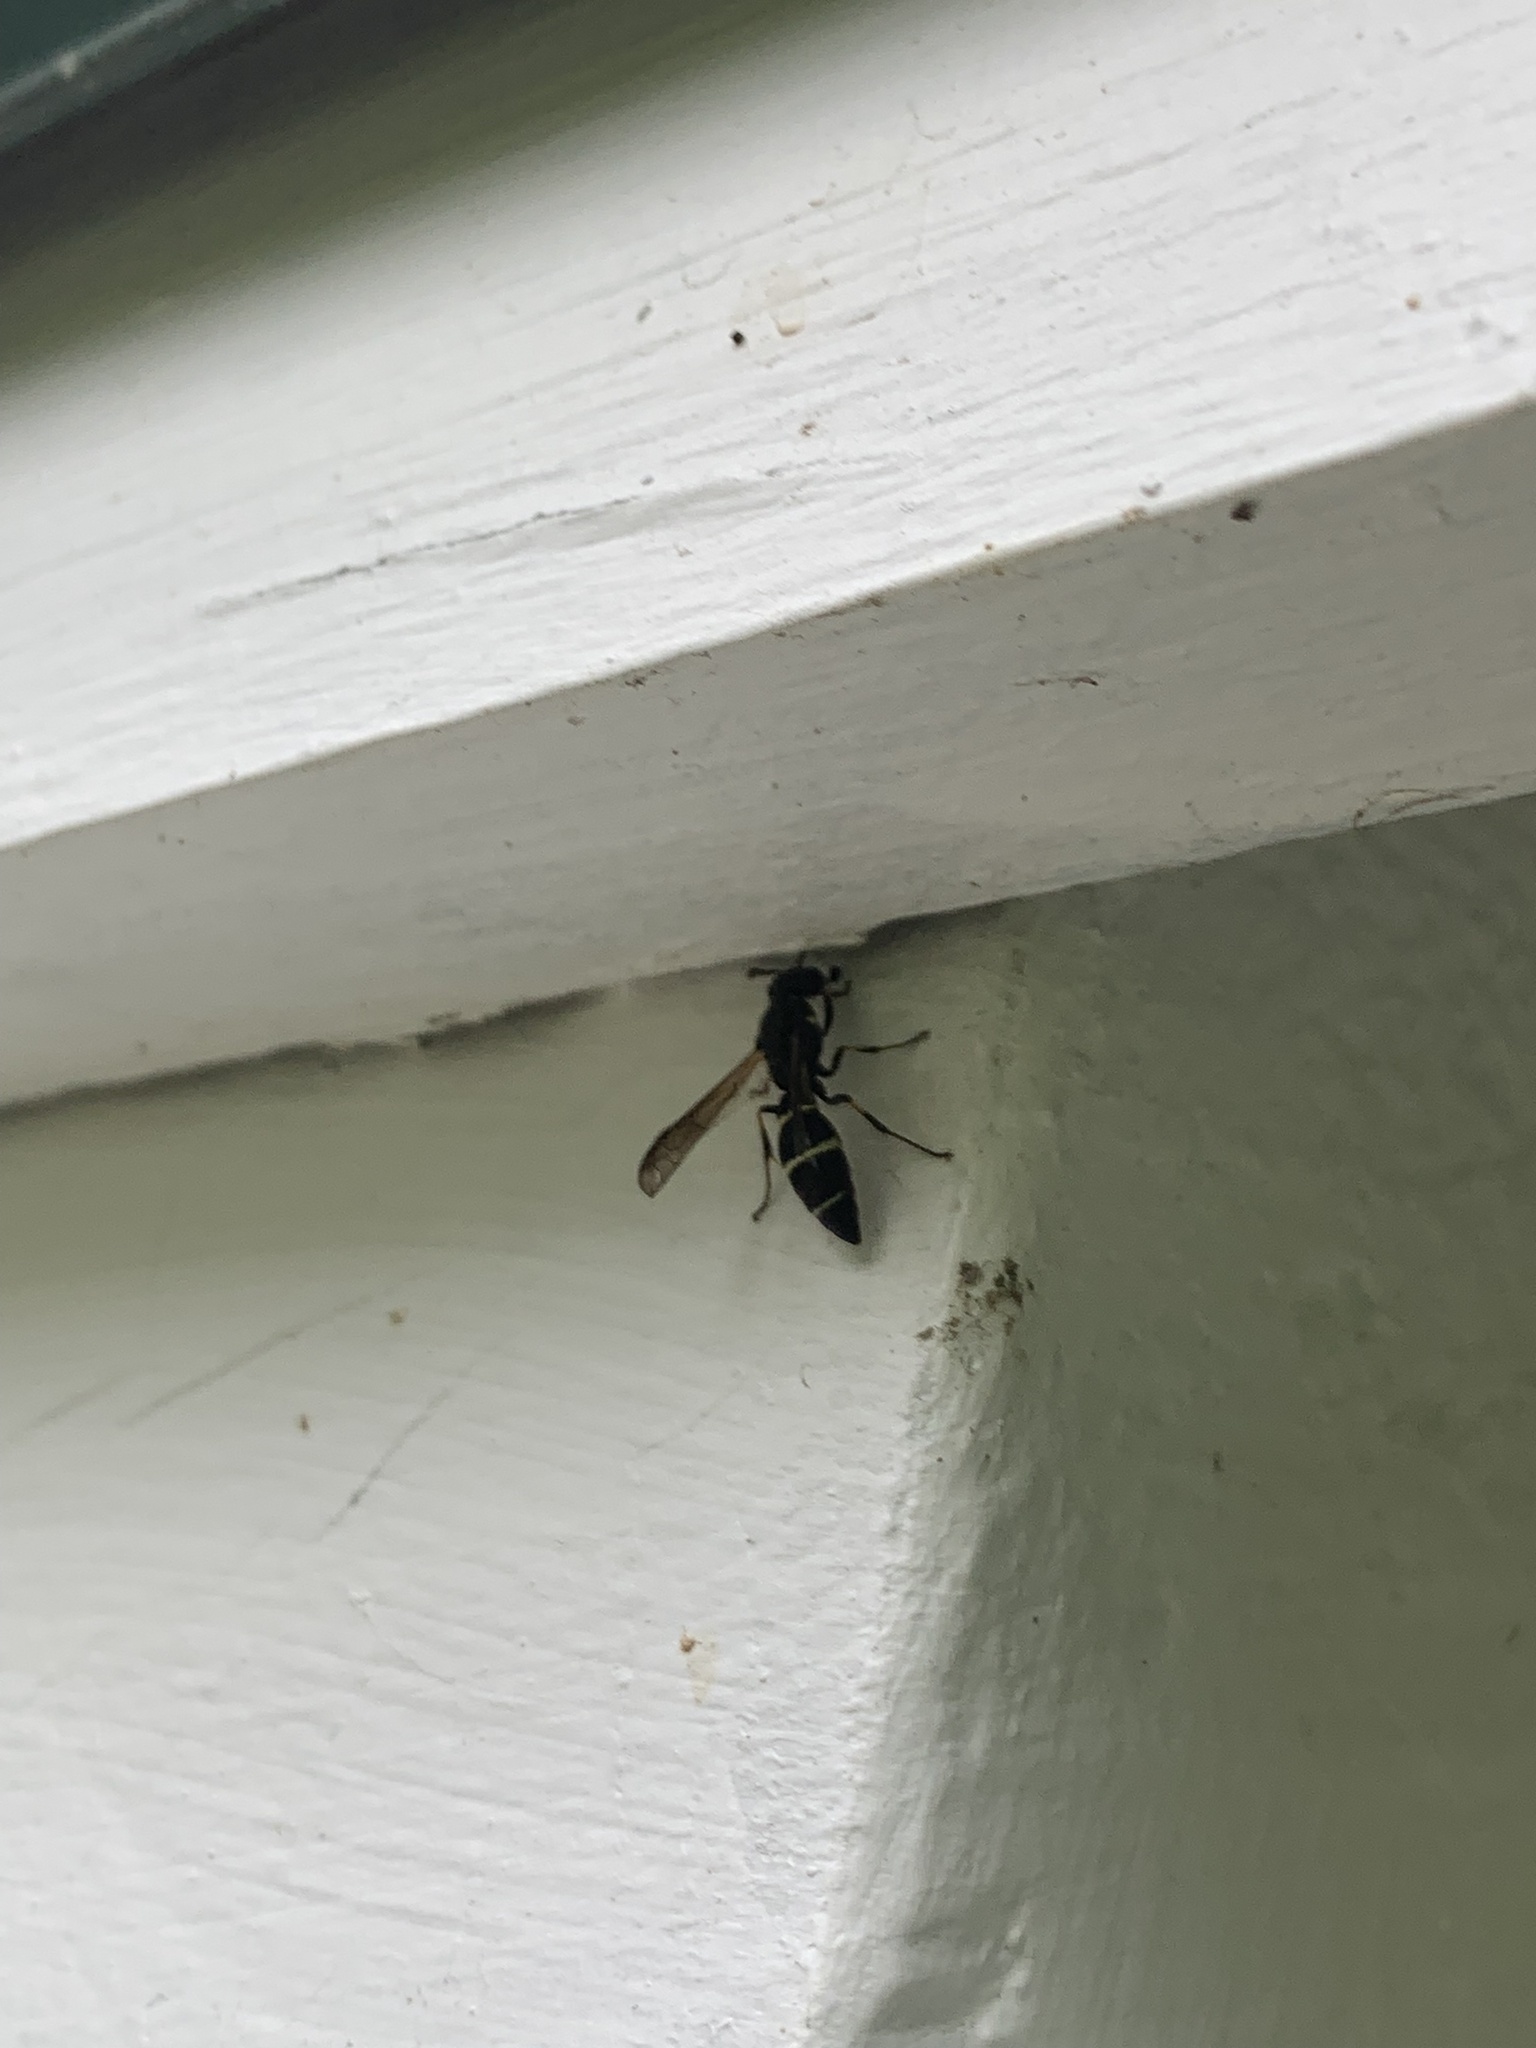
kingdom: Animalia
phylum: Arthropoda
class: Insecta
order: Hymenoptera
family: Eumenidae
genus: Symmorphus
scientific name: Symmorphus
